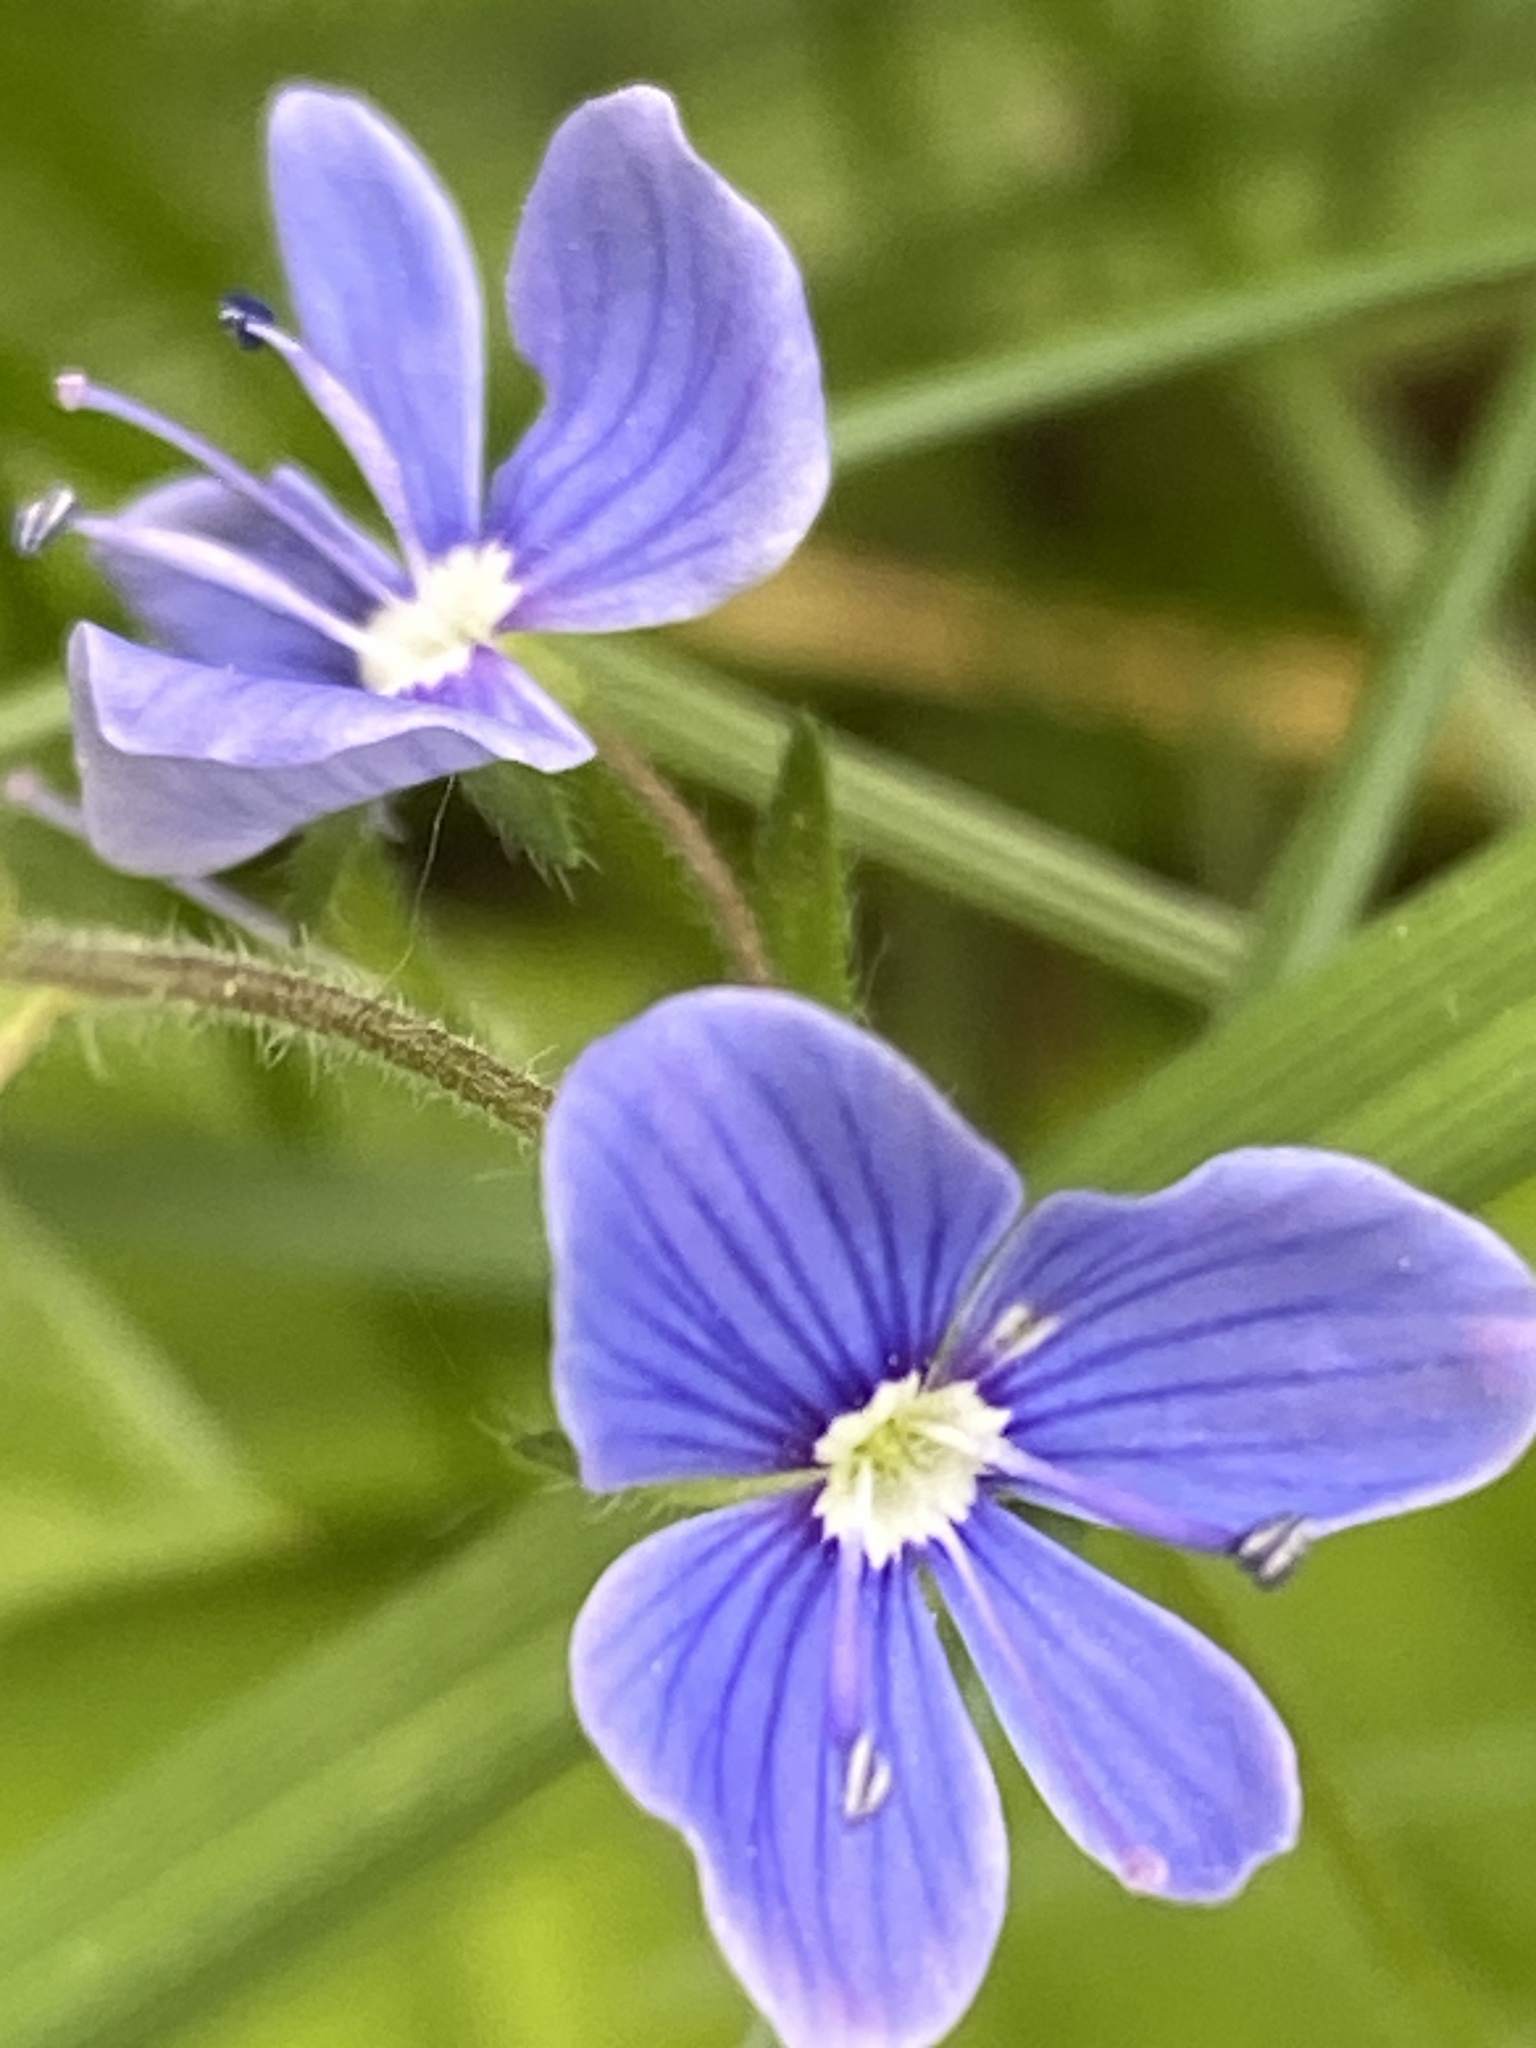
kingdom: Plantae
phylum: Tracheophyta
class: Magnoliopsida
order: Lamiales
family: Plantaginaceae
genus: Veronica
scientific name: Veronica chamaedrys
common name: Germander speedwell
